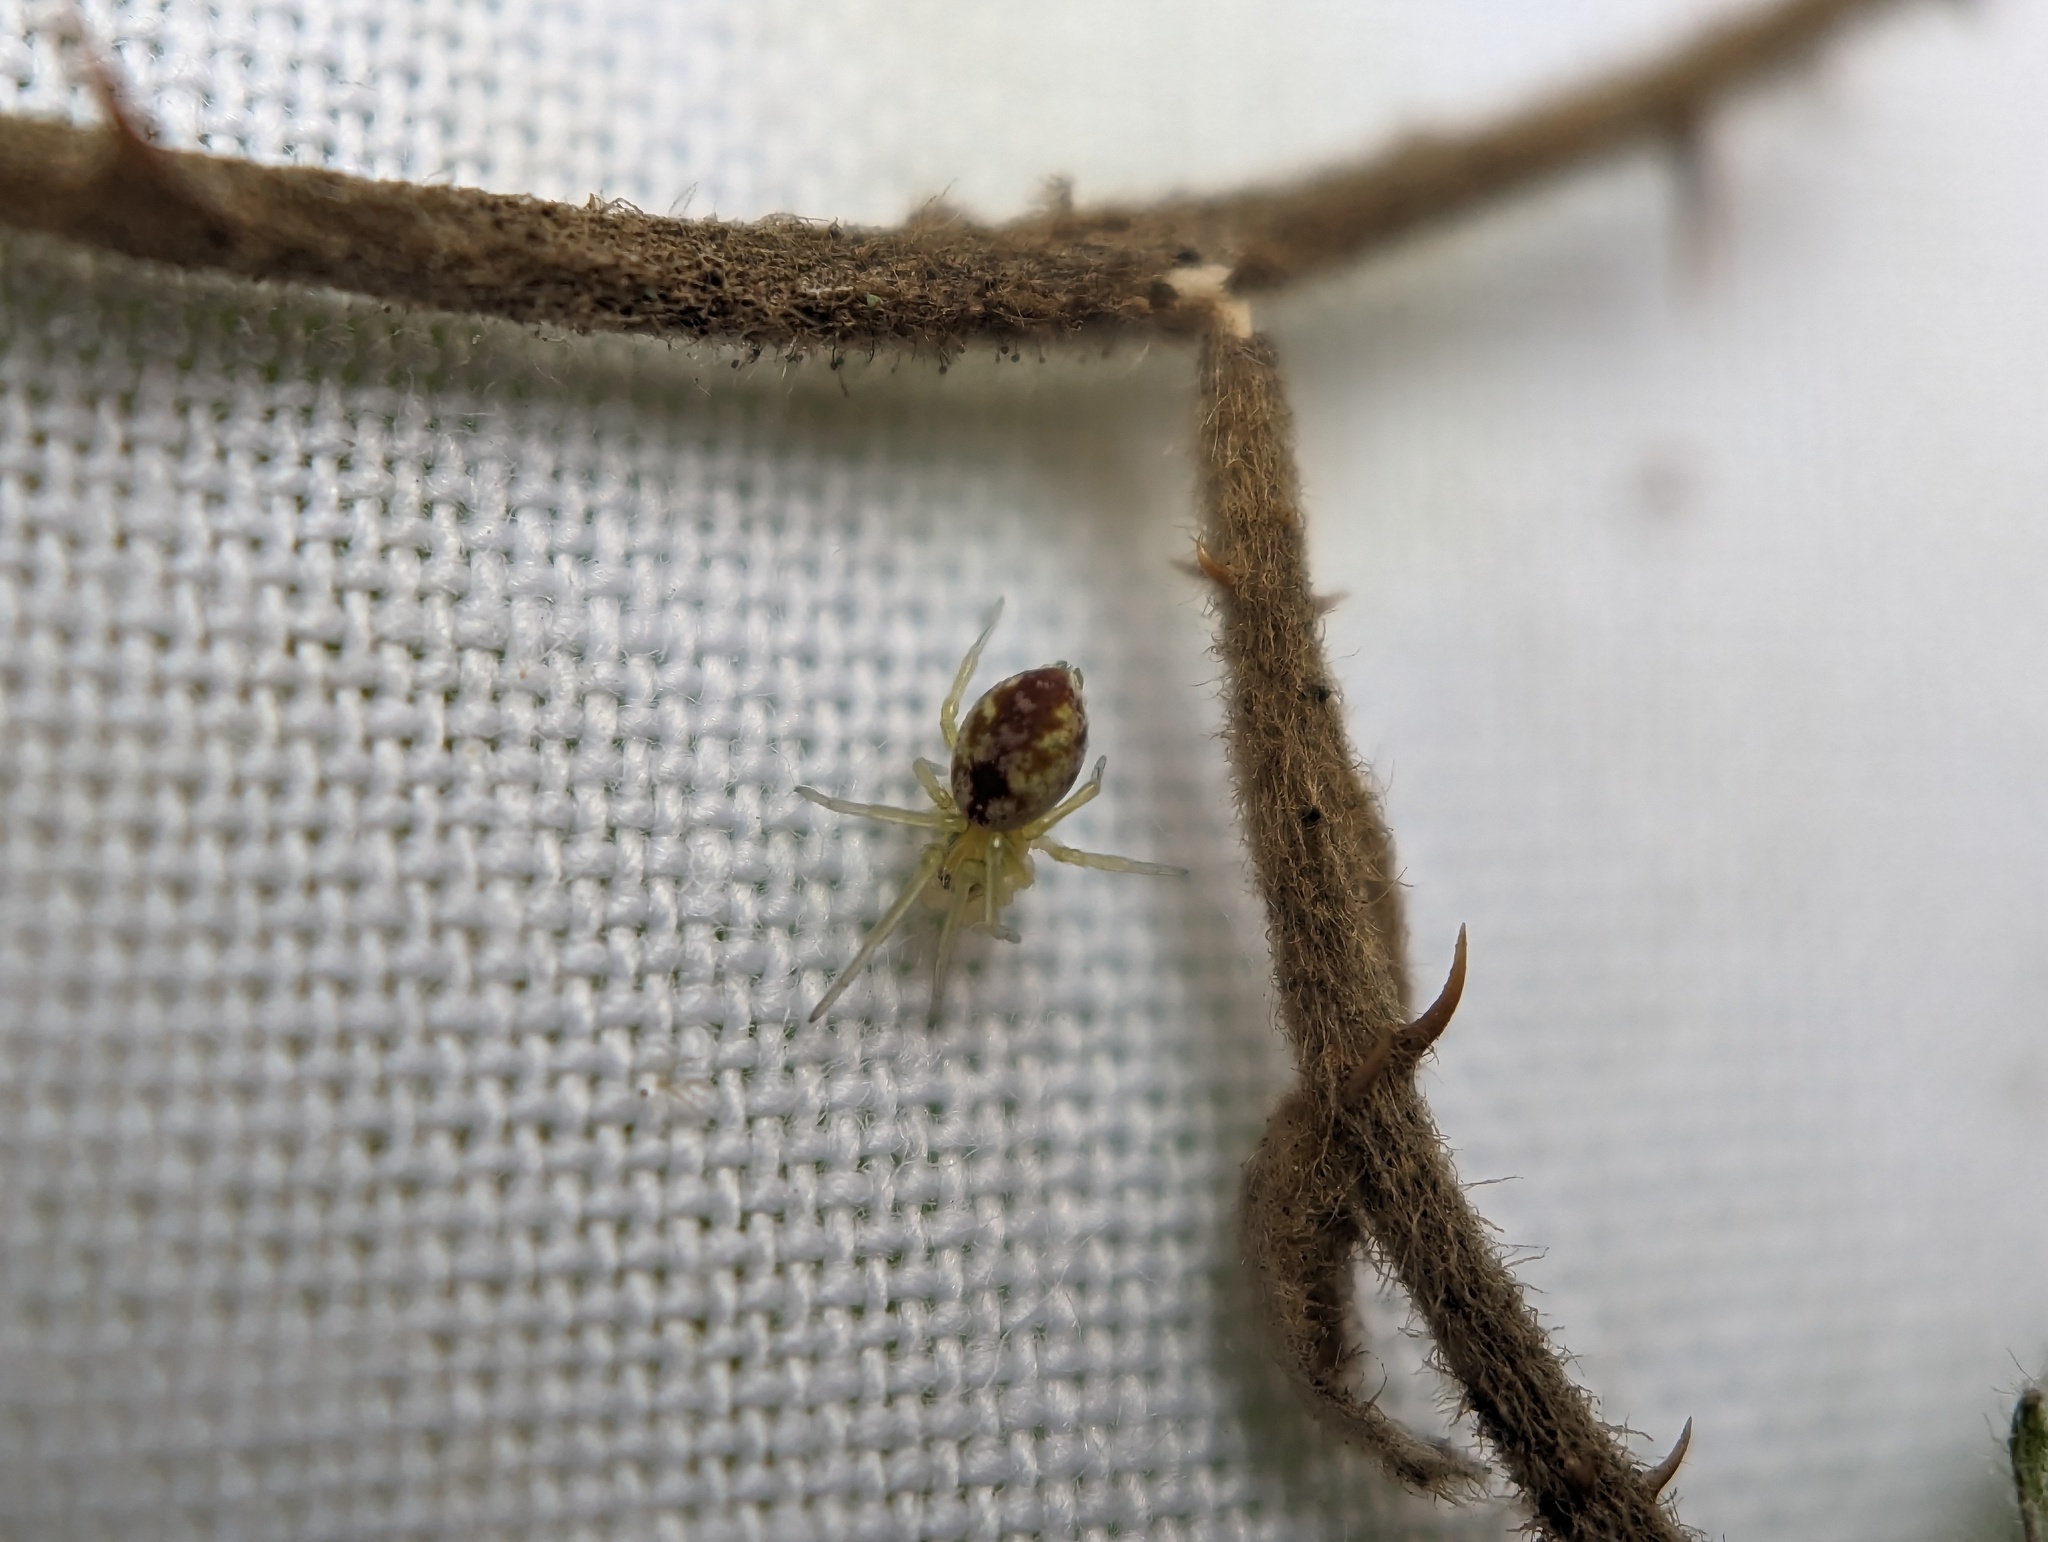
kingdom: Animalia
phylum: Arthropoda
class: Arachnida
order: Araneae
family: Dictynidae
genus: Nigma
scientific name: Nigma puella
